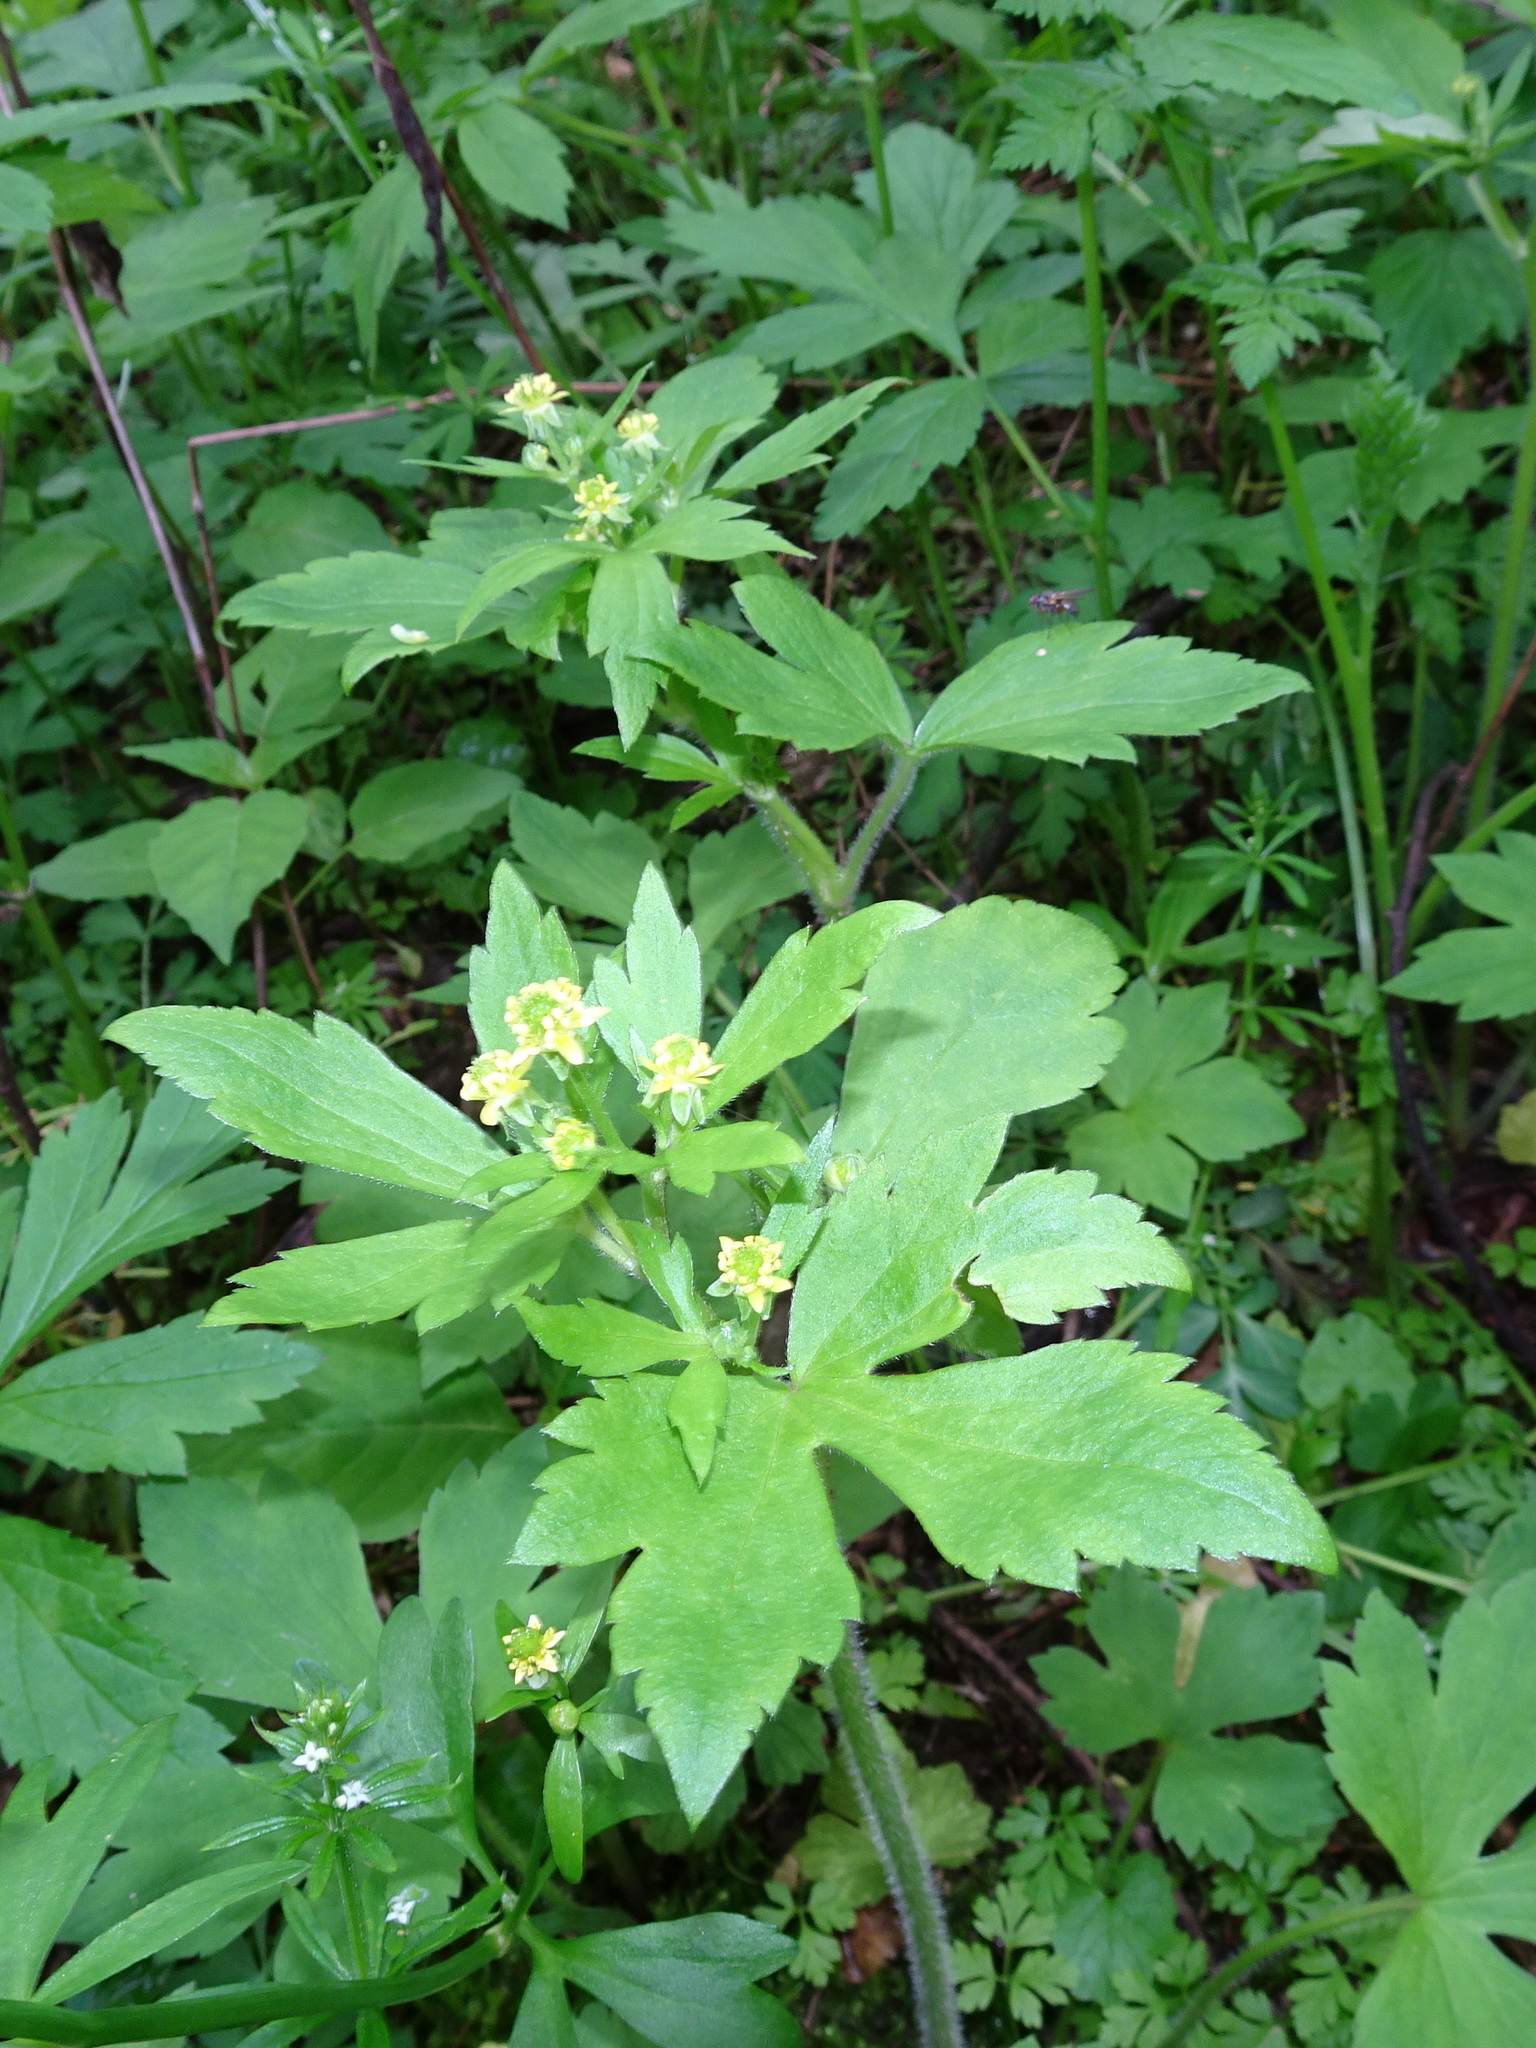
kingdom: Plantae
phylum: Tracheophyta
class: Magnoliopsida
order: Ranunculales
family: Ranunculaceae
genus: Ranunculus
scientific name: Ranunculus recurvatus
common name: Blisterwort
